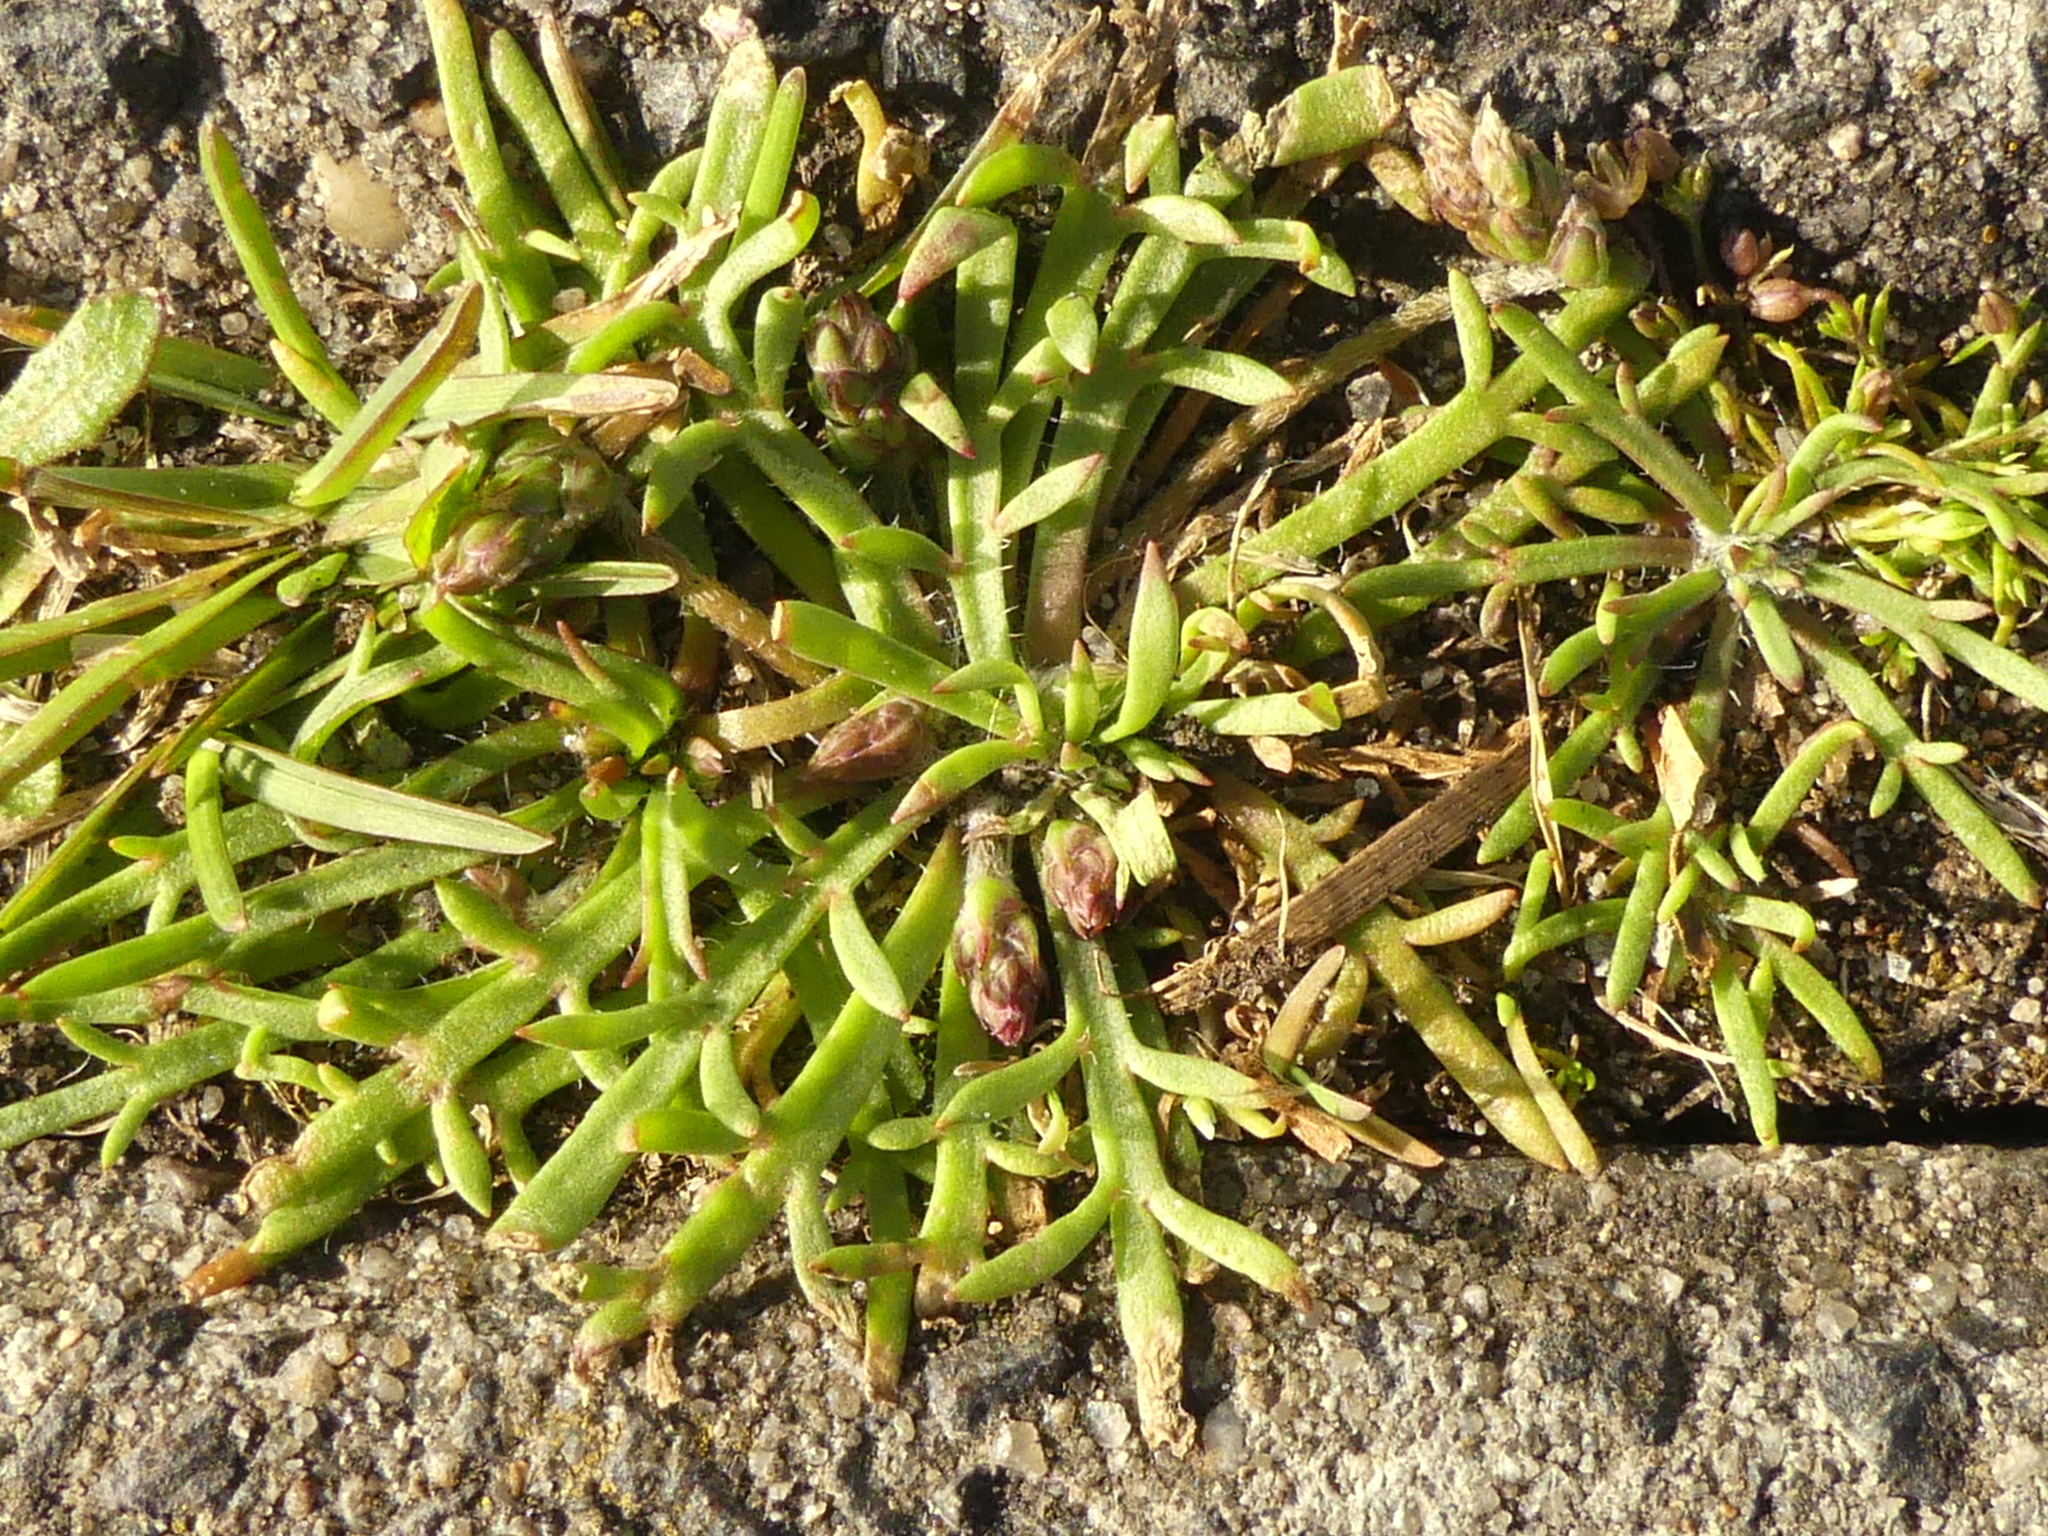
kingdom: Plantae
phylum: Tracheophyta
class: Magnoliopsida
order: Lamiales
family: Plantaginaceae
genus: Plantago
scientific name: Plantago coronopus
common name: Buck's-horn plantain
